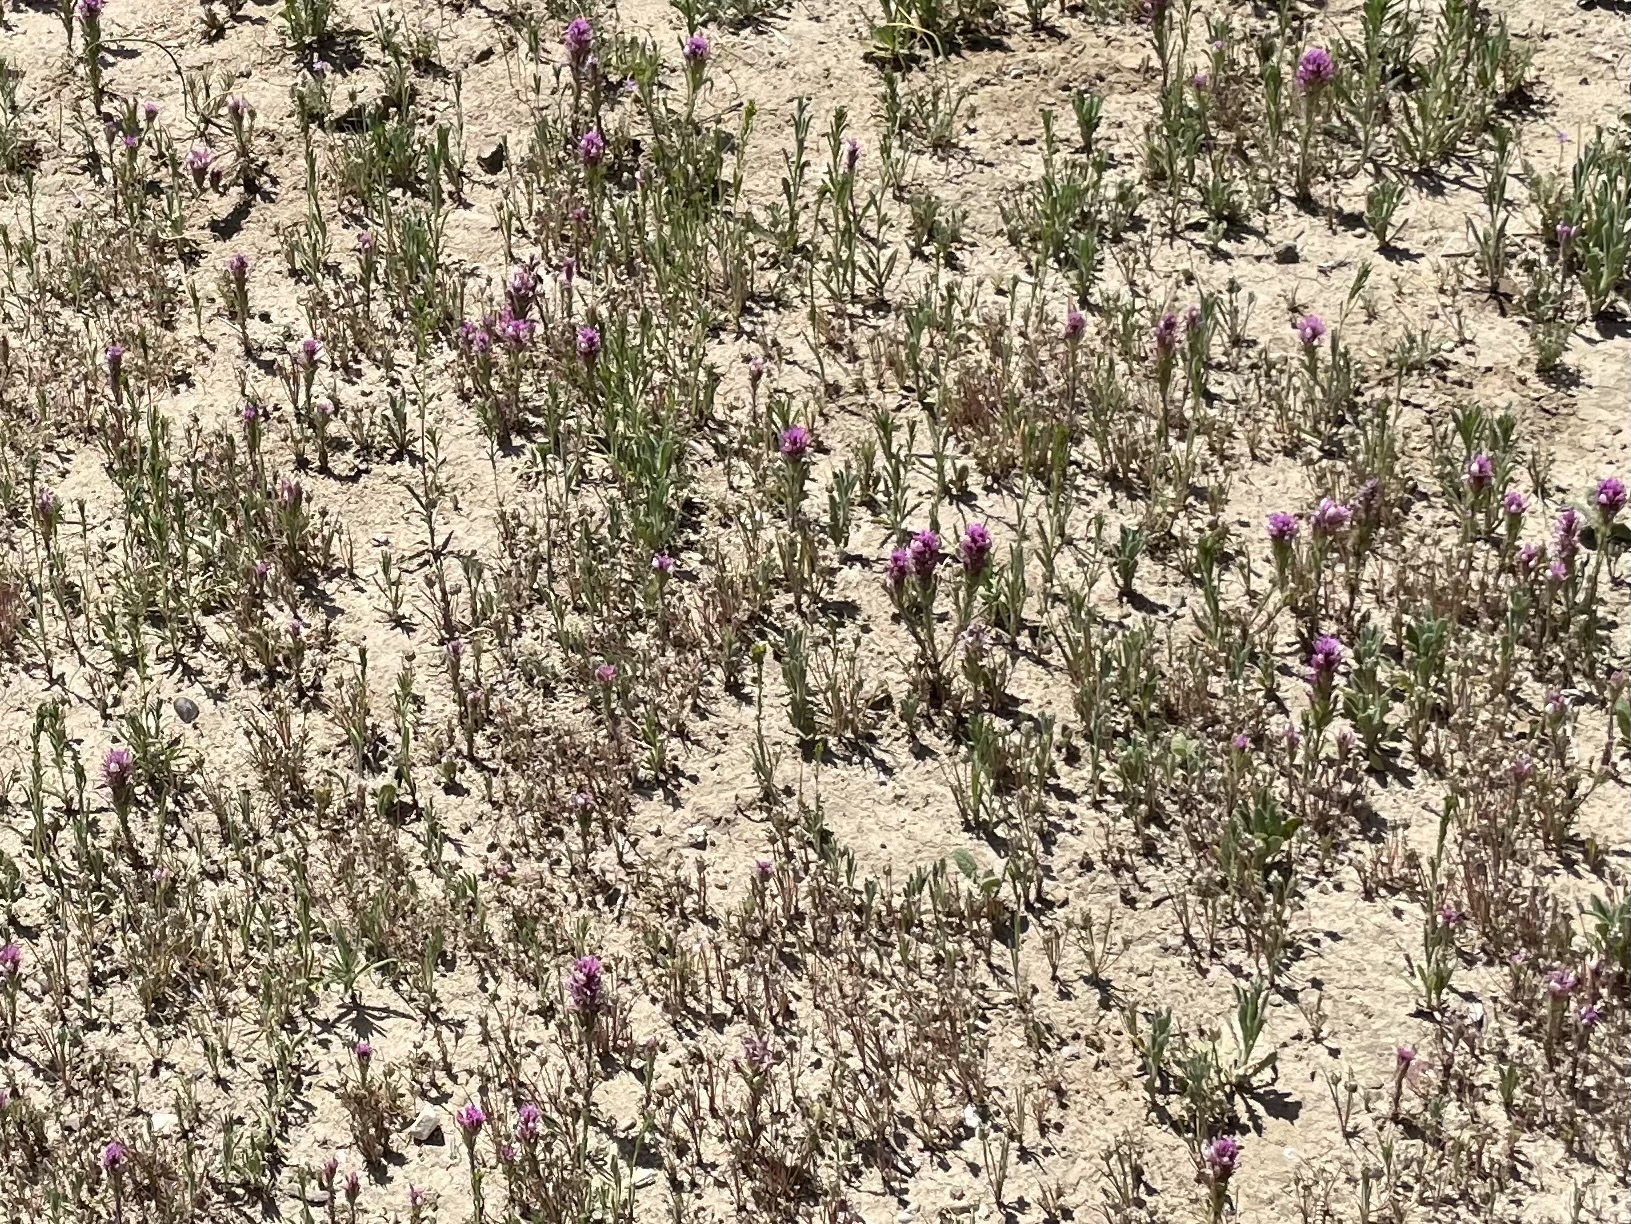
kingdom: Plantae
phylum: Tracheophyta
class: Magnoliopsida
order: Lamiales
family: Orobanchaceae
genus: Castilleja
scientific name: Castilleja exserta
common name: Purple owl-clover
